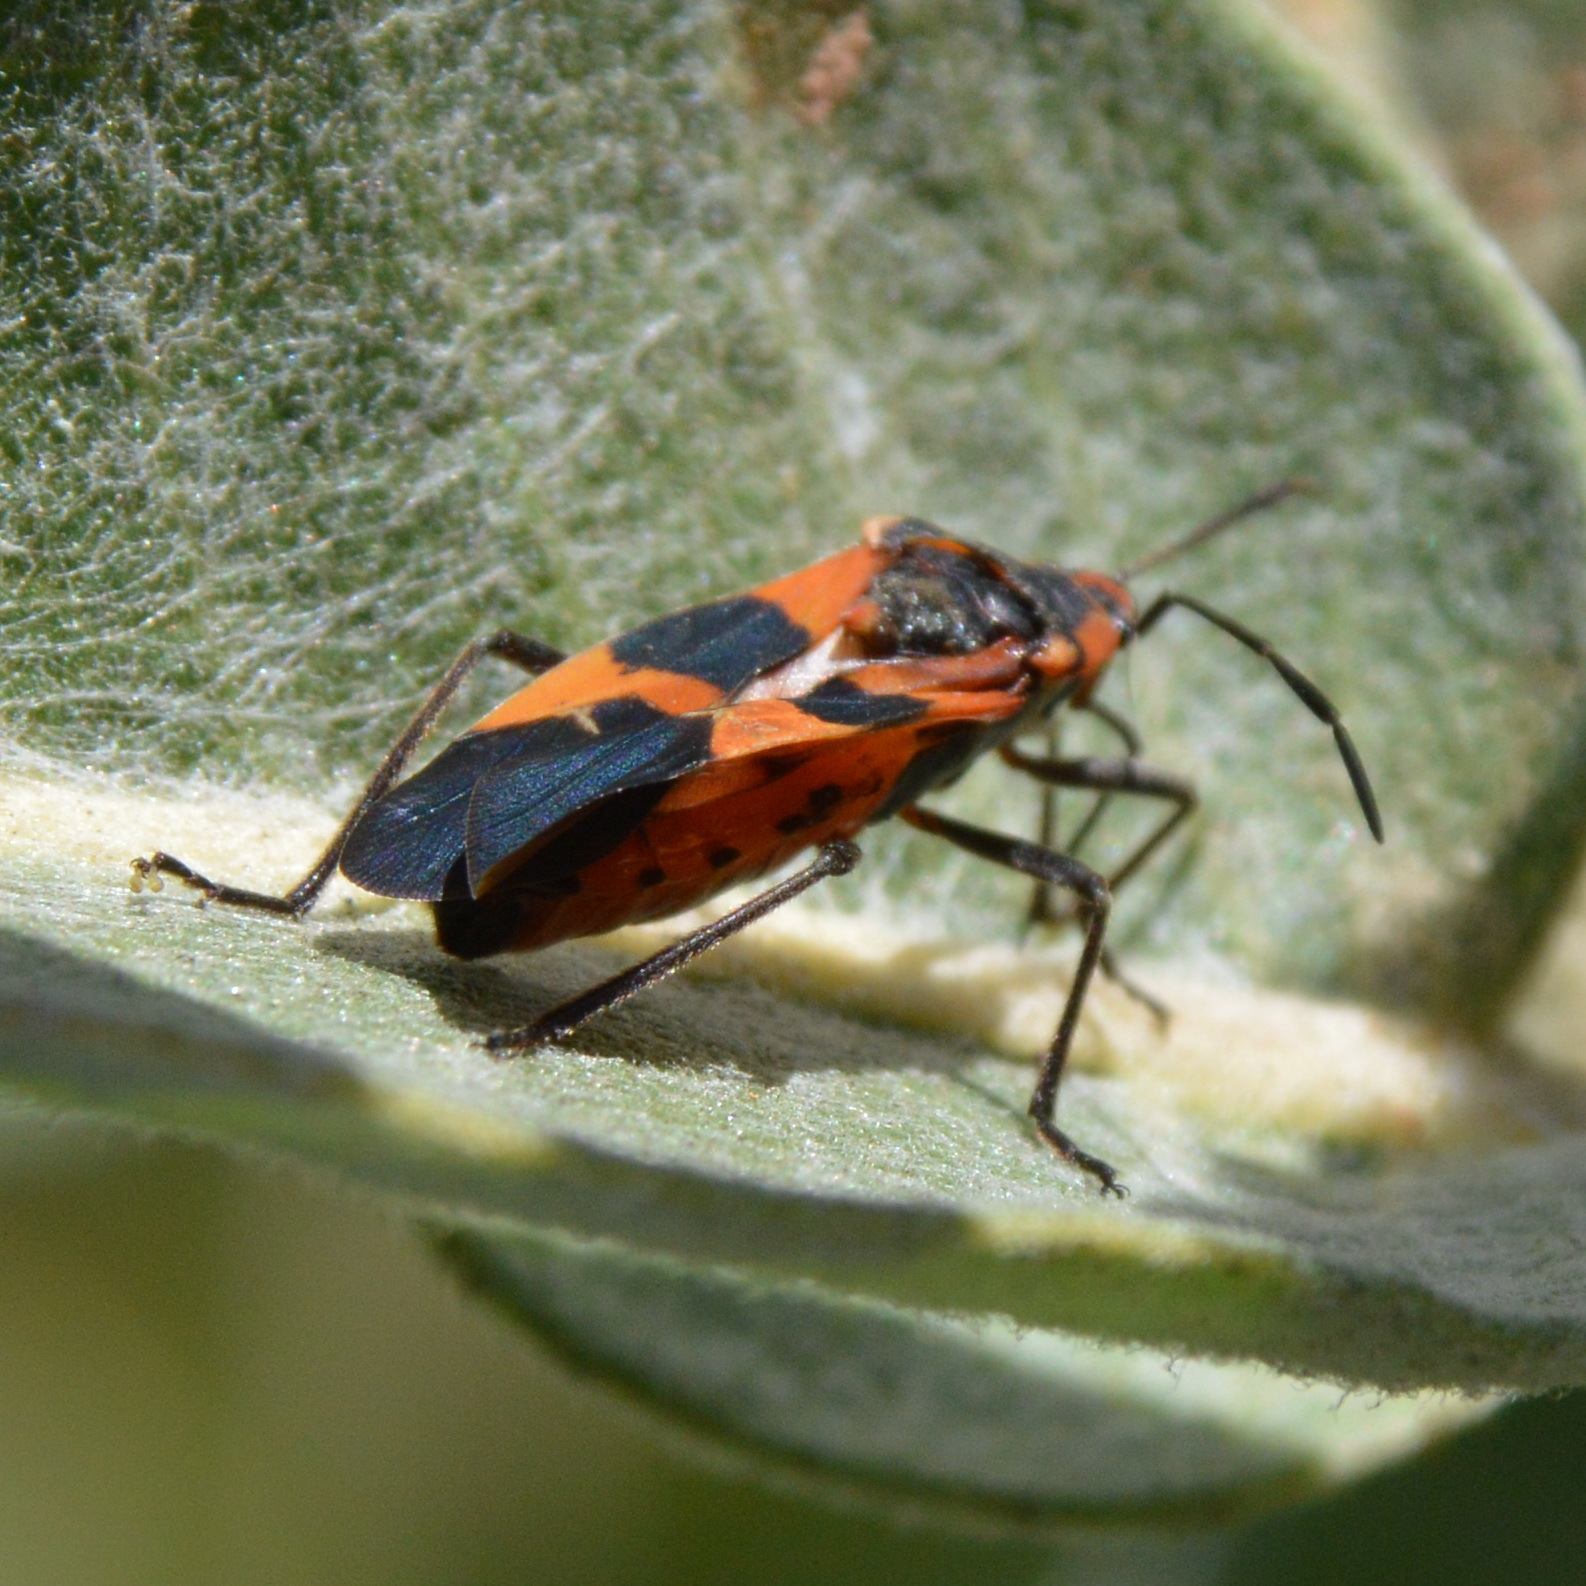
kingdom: Animalia
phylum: Arthropoda
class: Insecta
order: Hemiptera
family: Lygaeidae
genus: Oncopeltus
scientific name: Oncopeltus fasciatus
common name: Large milkweed bug
